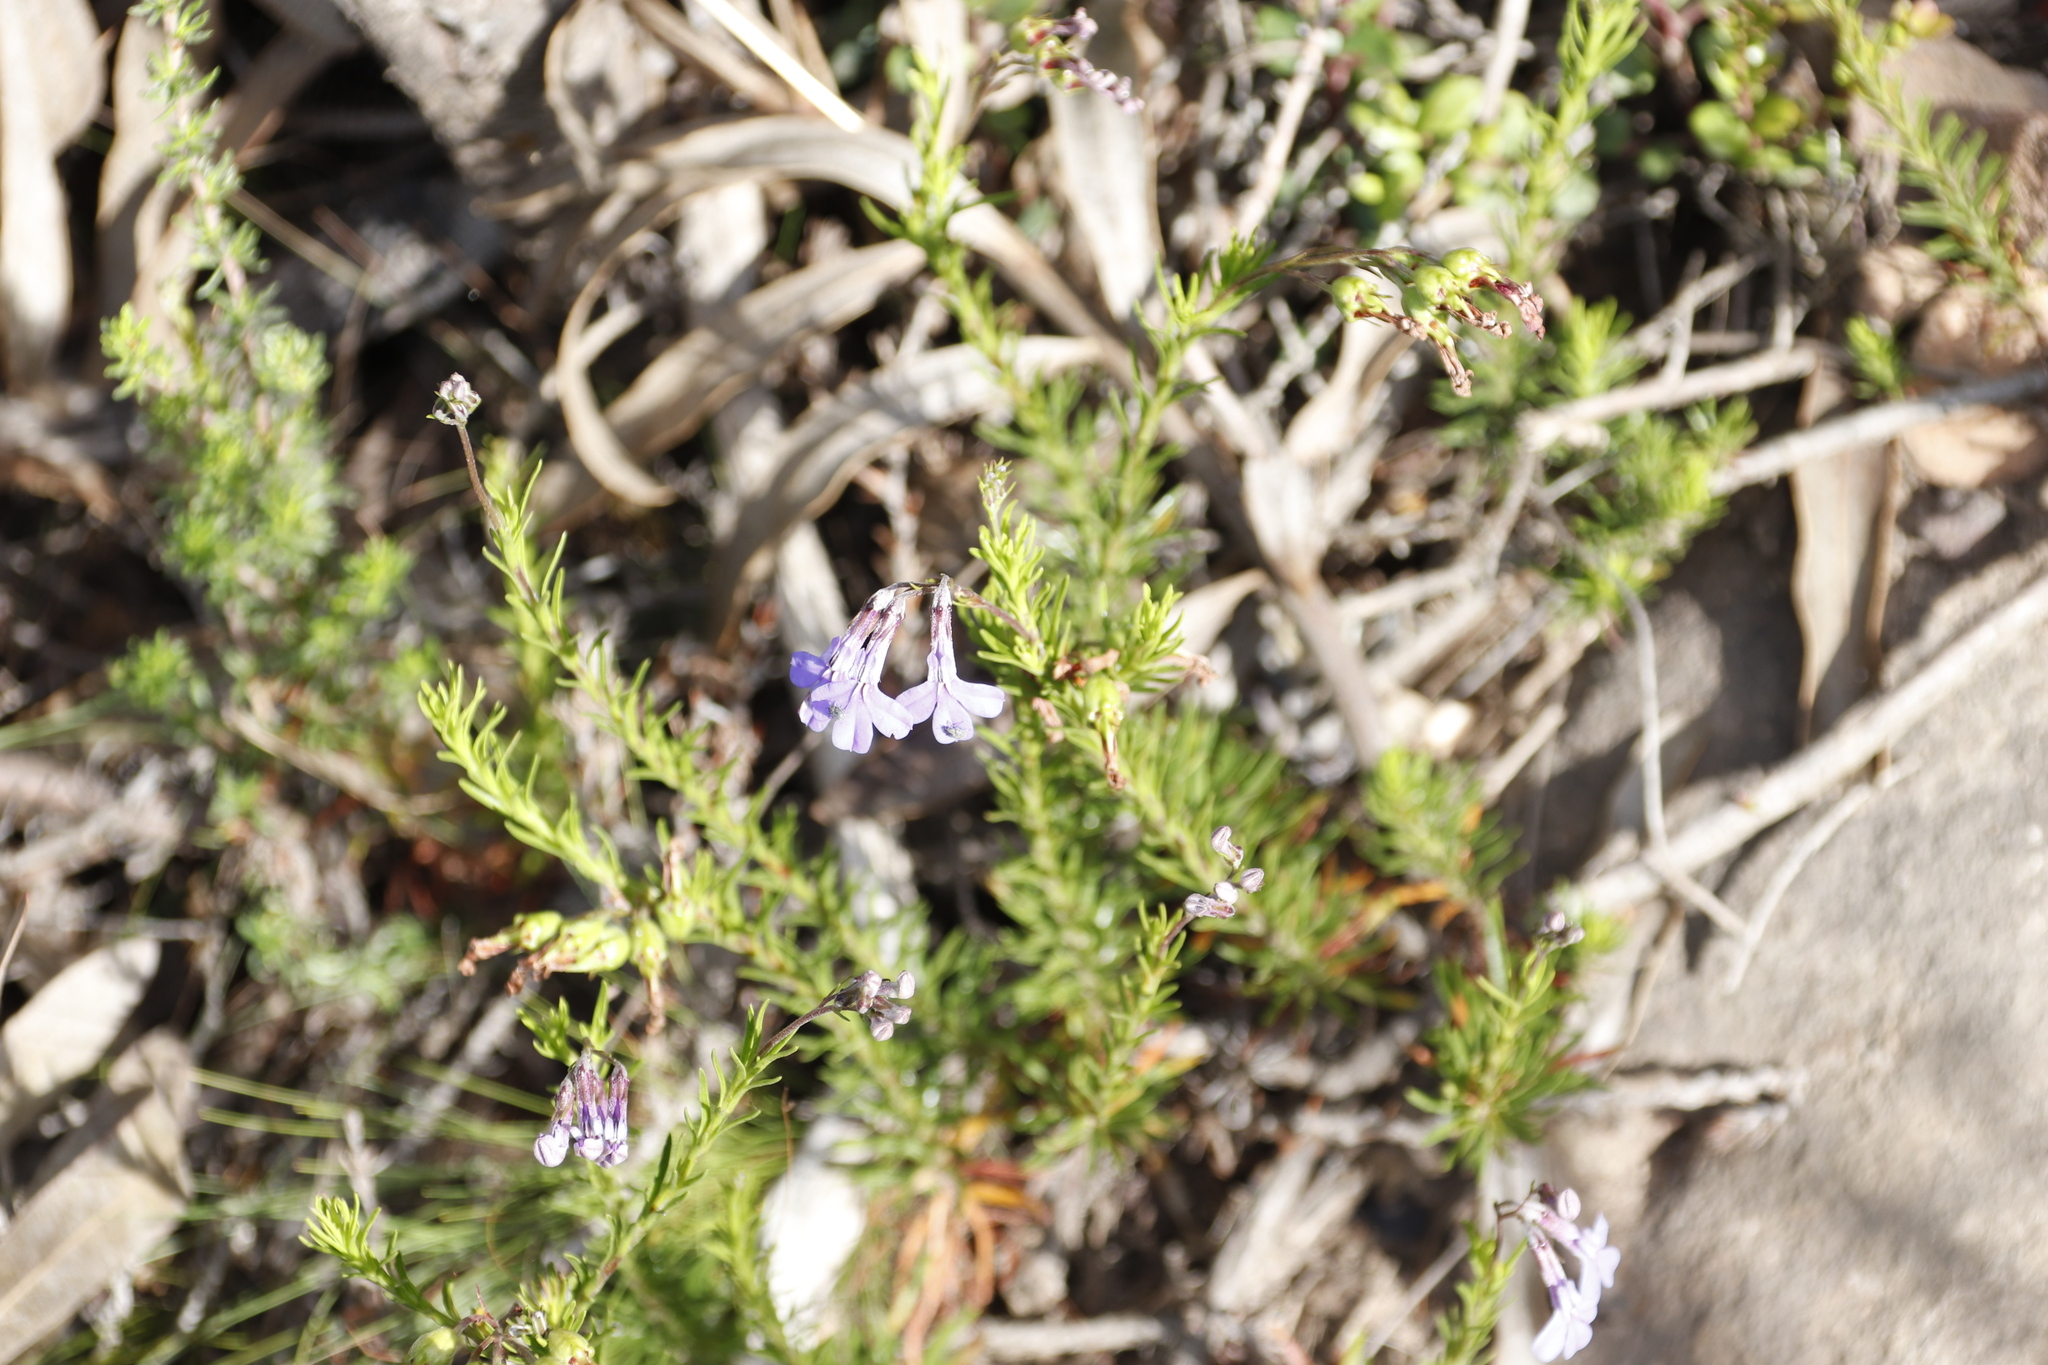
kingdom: Plantae
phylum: Tracheophyta
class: Magnoliopsida
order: Asterales
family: Campanulaceae
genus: Lobelia
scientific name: Lobelia pinifolia
